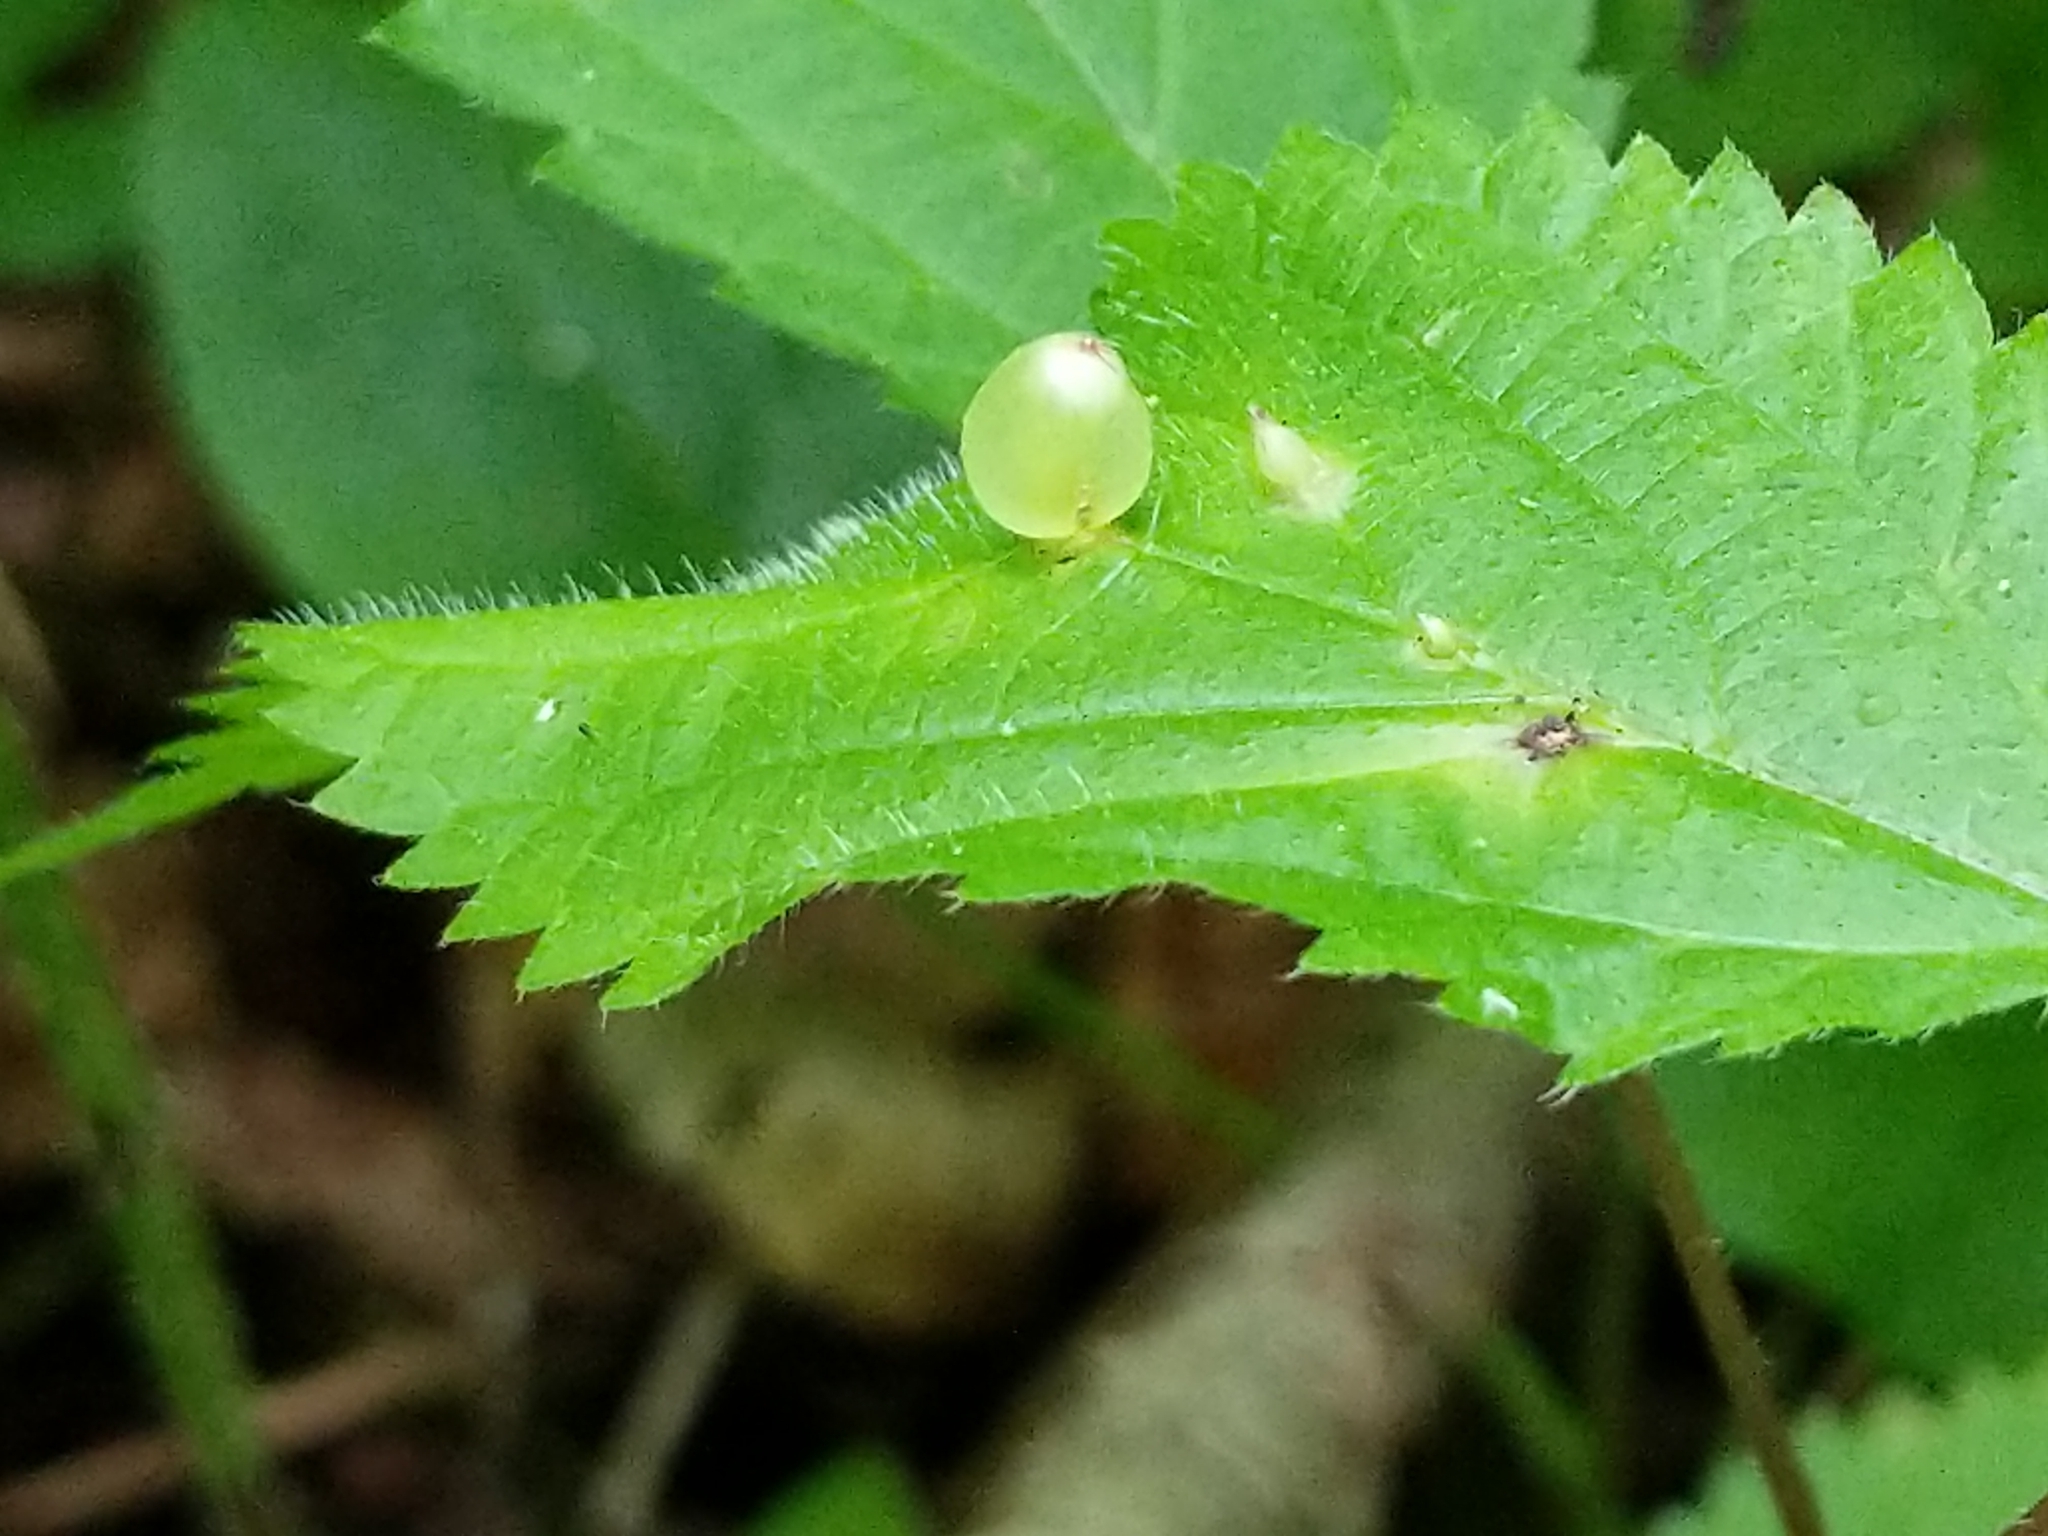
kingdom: Animalia
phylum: Arthropoda
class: Insecta
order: Diptera
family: Cecidomyiidae
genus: Dasineura
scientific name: Dasineura investita
